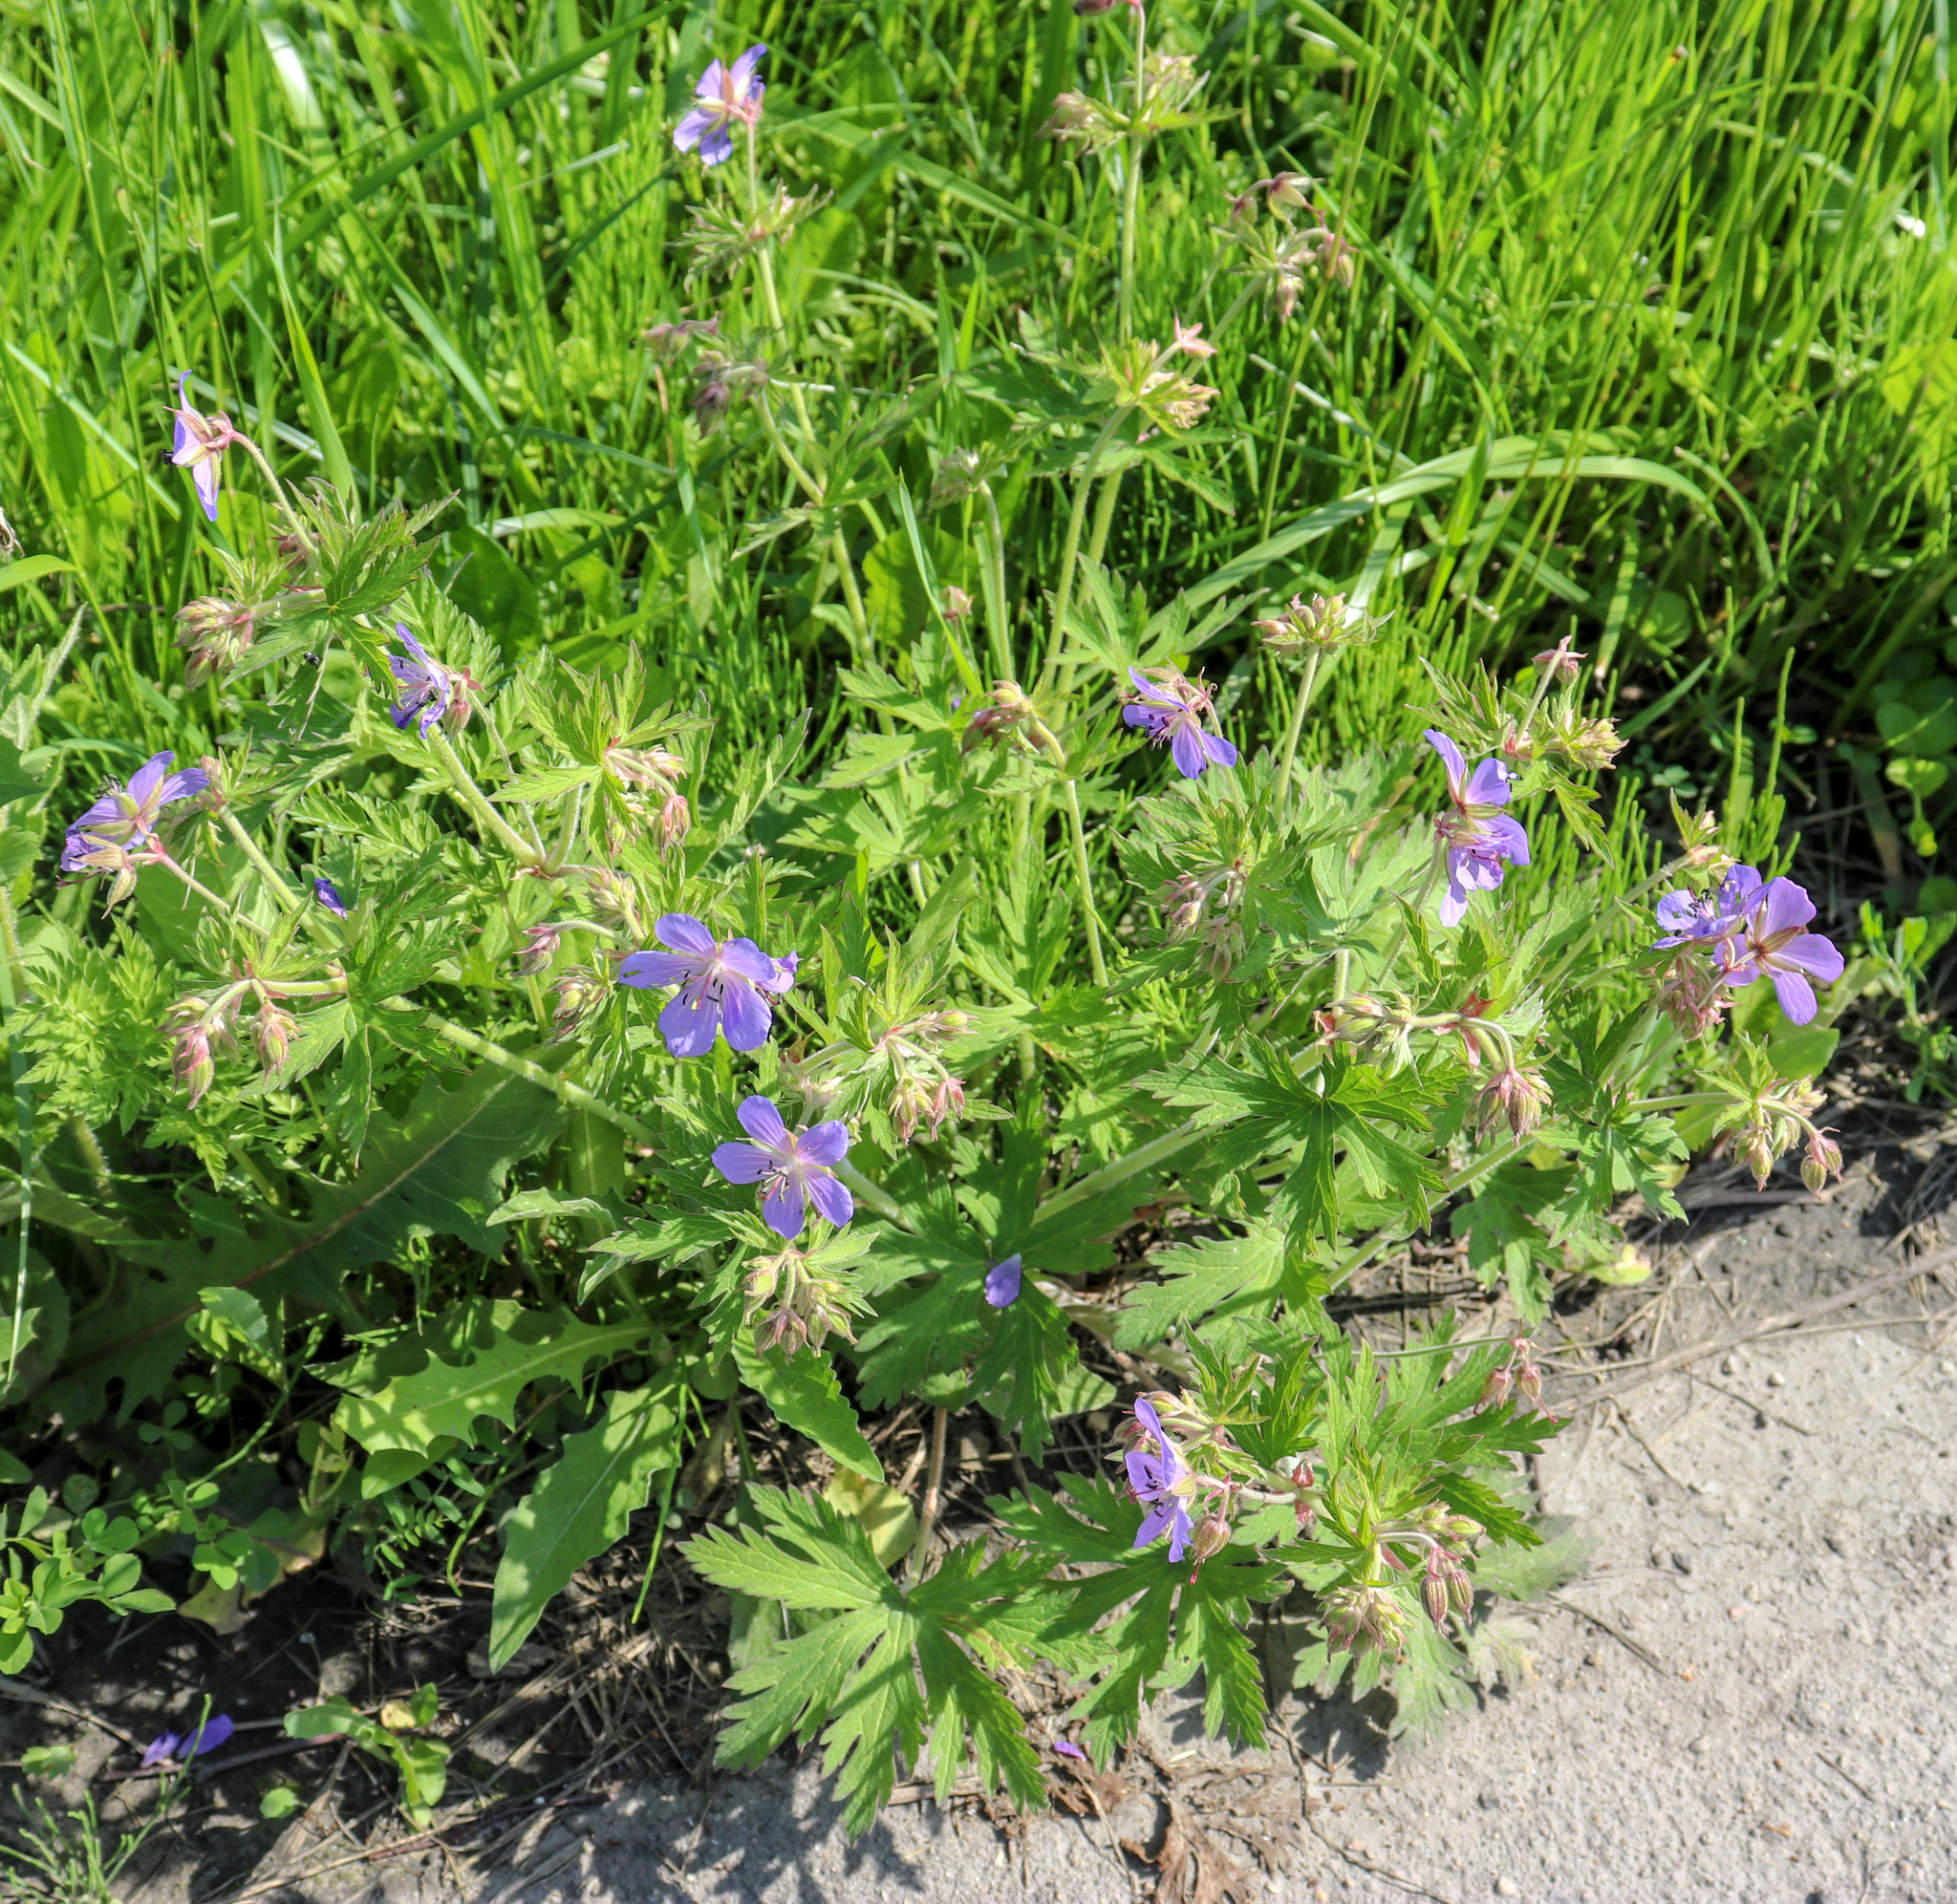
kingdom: Plantae
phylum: Tracheophyta
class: Magnoliopsida
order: Geraniales
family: Geraniaceae
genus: Geranium
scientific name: Geranium pratense
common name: Meadow crane's-bill
